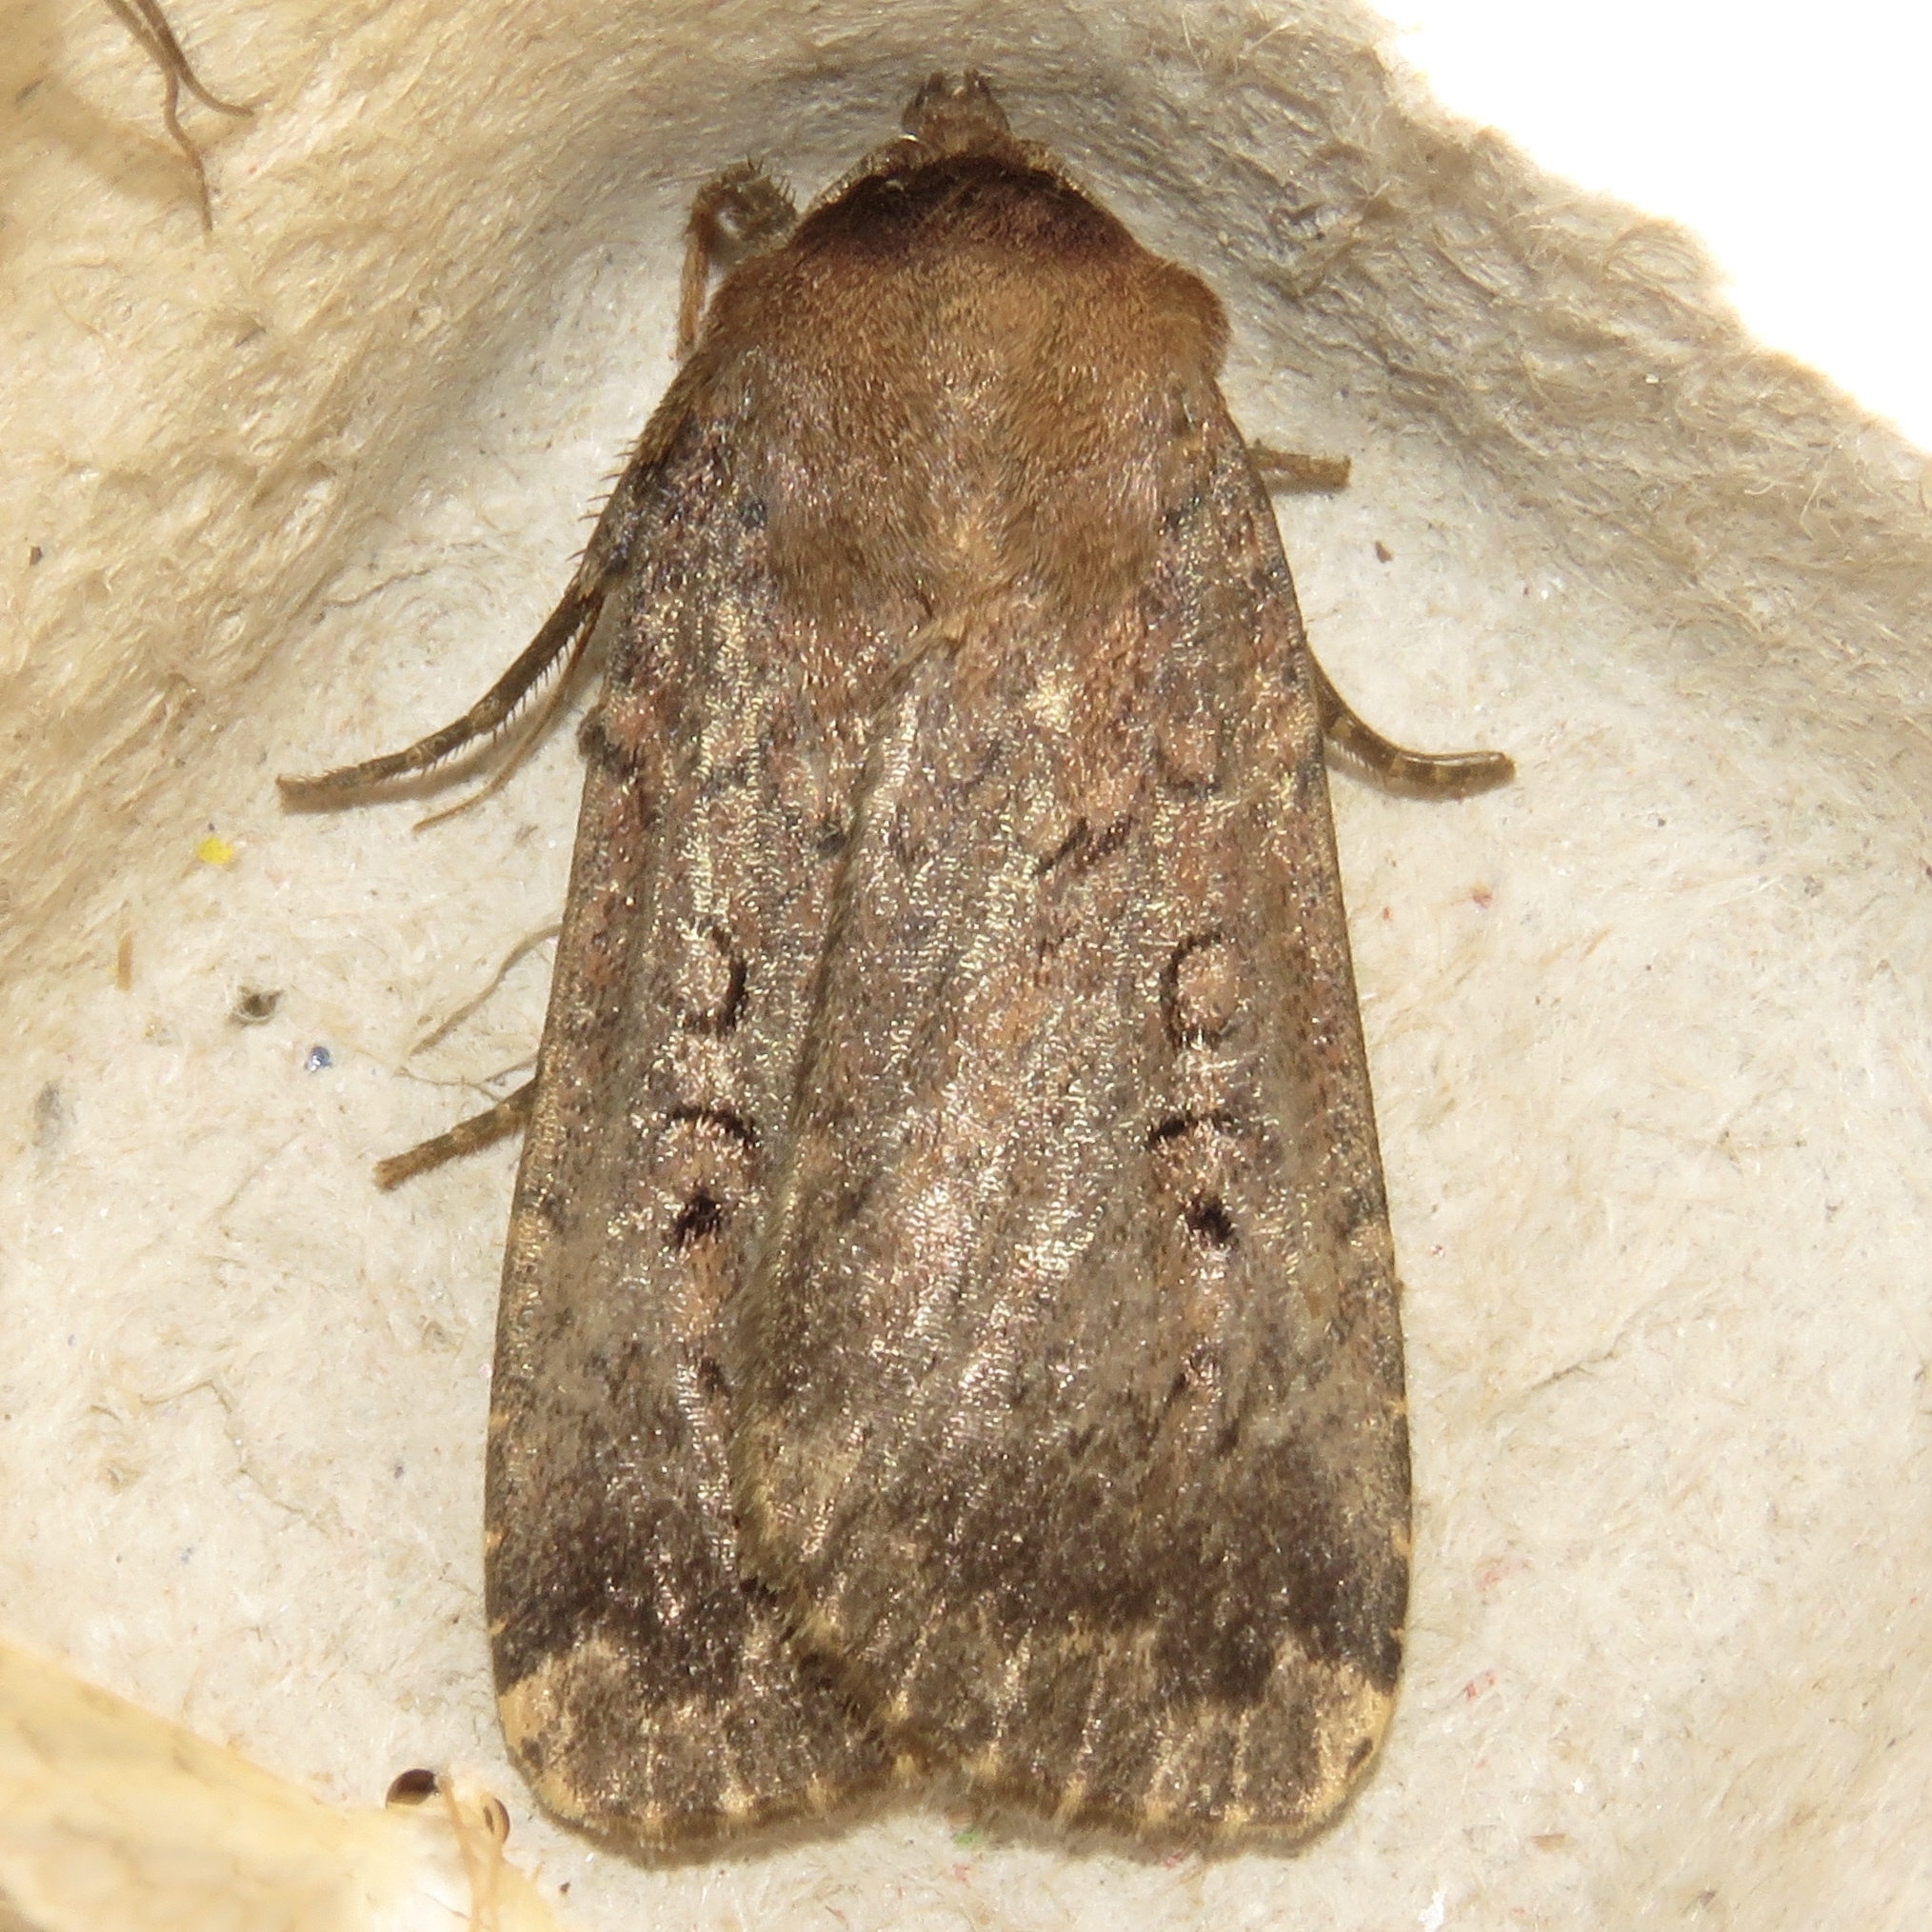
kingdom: Animalia
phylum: Arthropoda
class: Insecta
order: Lepidoptera
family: Noctuidae
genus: Graphiphora
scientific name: Graphiphora augur
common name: Double dart
